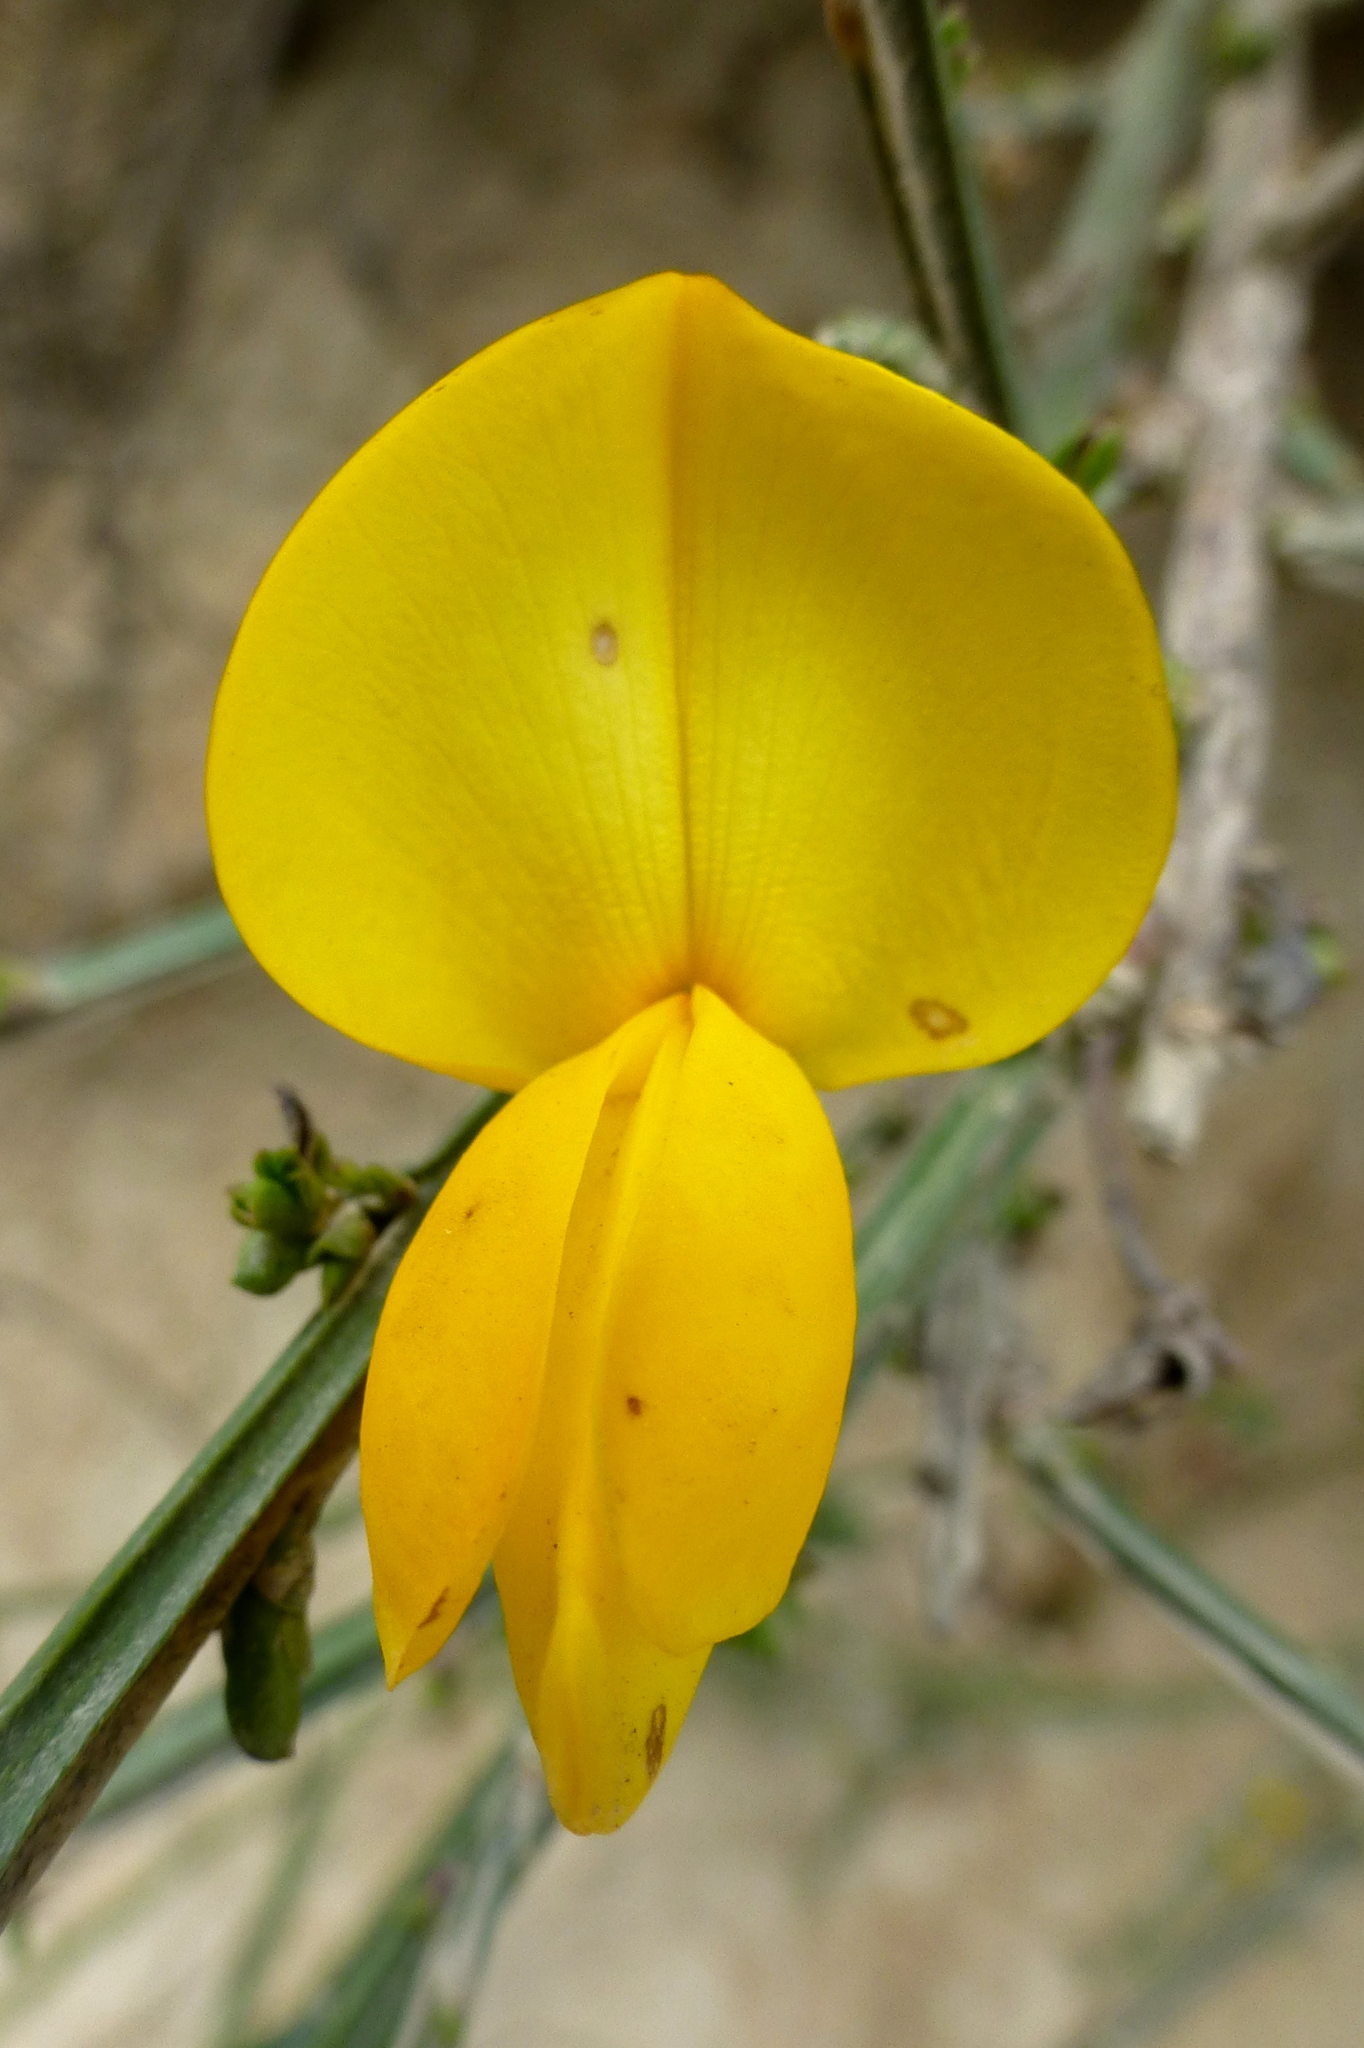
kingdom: Plantae
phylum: Tracheophyta
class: Magnoliopsida
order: Fabales
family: Fabaceae
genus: Cytisus
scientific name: Cytisus scoparius
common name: Scotch broom
